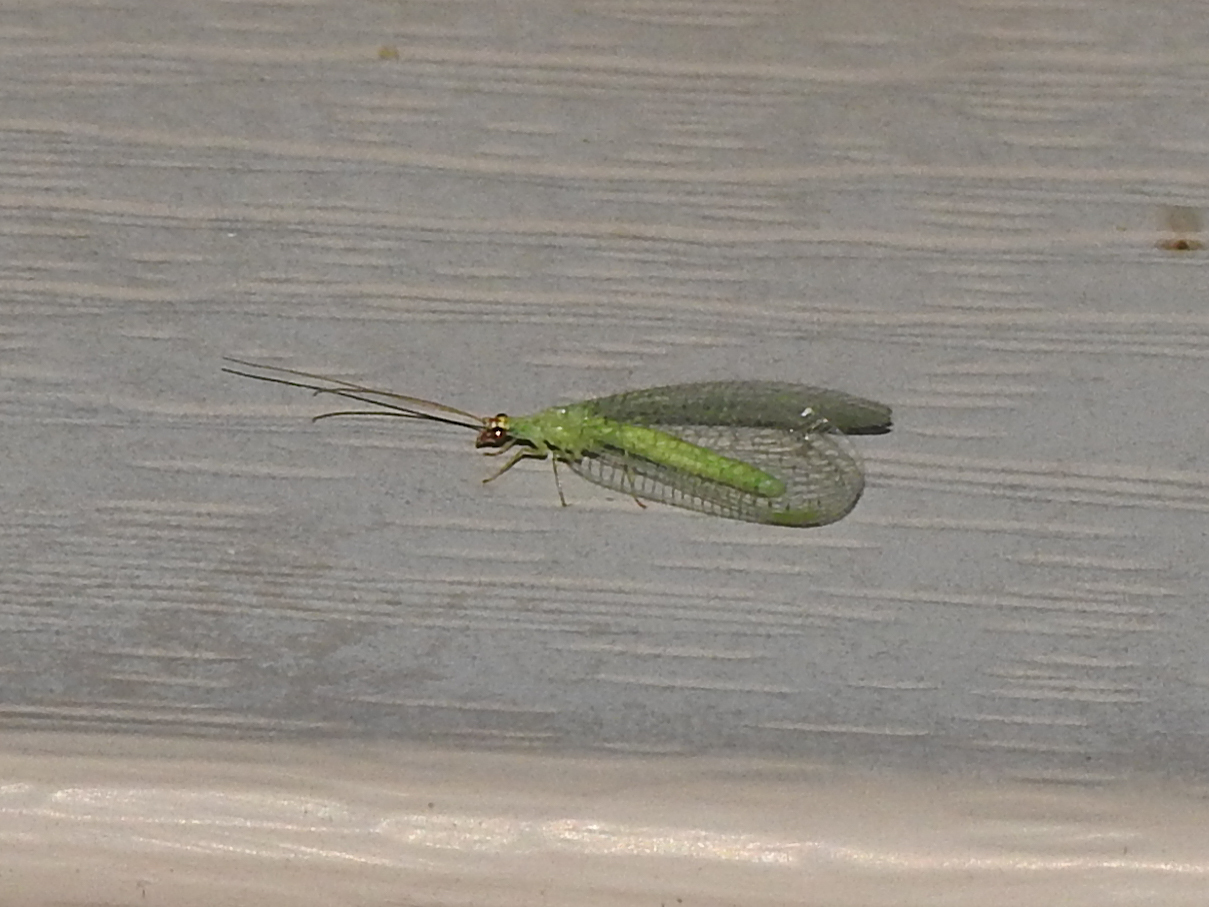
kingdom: Animalia
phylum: Arthropoda
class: Insecta
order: Neuroptera
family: Chrysopidae
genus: Chrysopa
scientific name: Chrysopa oculata
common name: Golden-eyed lacewing
